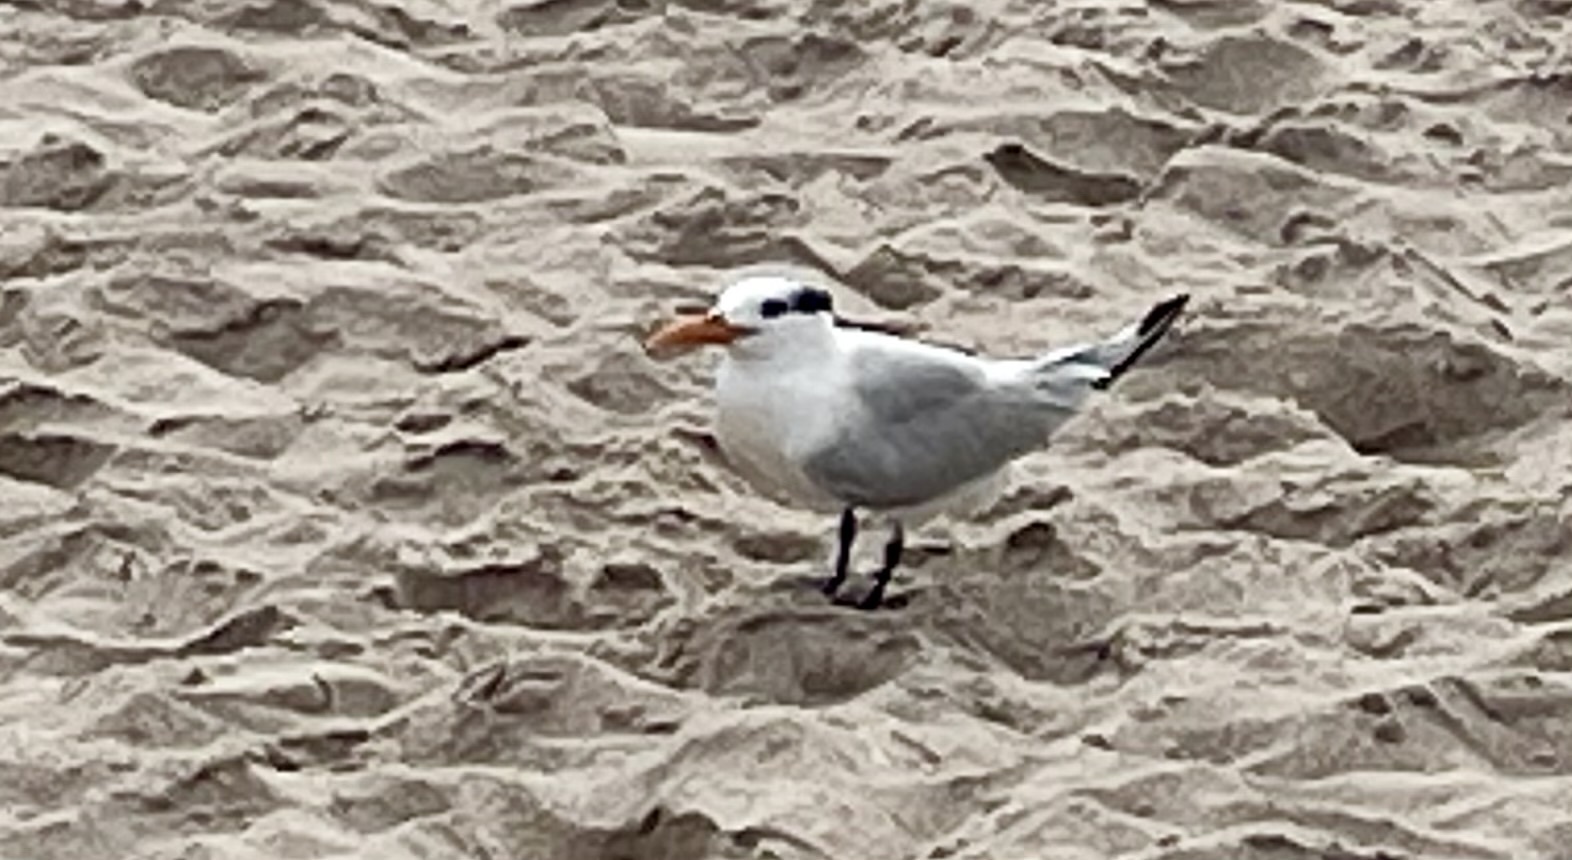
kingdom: Animalia
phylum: Chordata
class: Aves
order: Charadriiformes
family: Laridae
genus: Thalasseus
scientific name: Thalasseus maximus
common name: Royal tern
